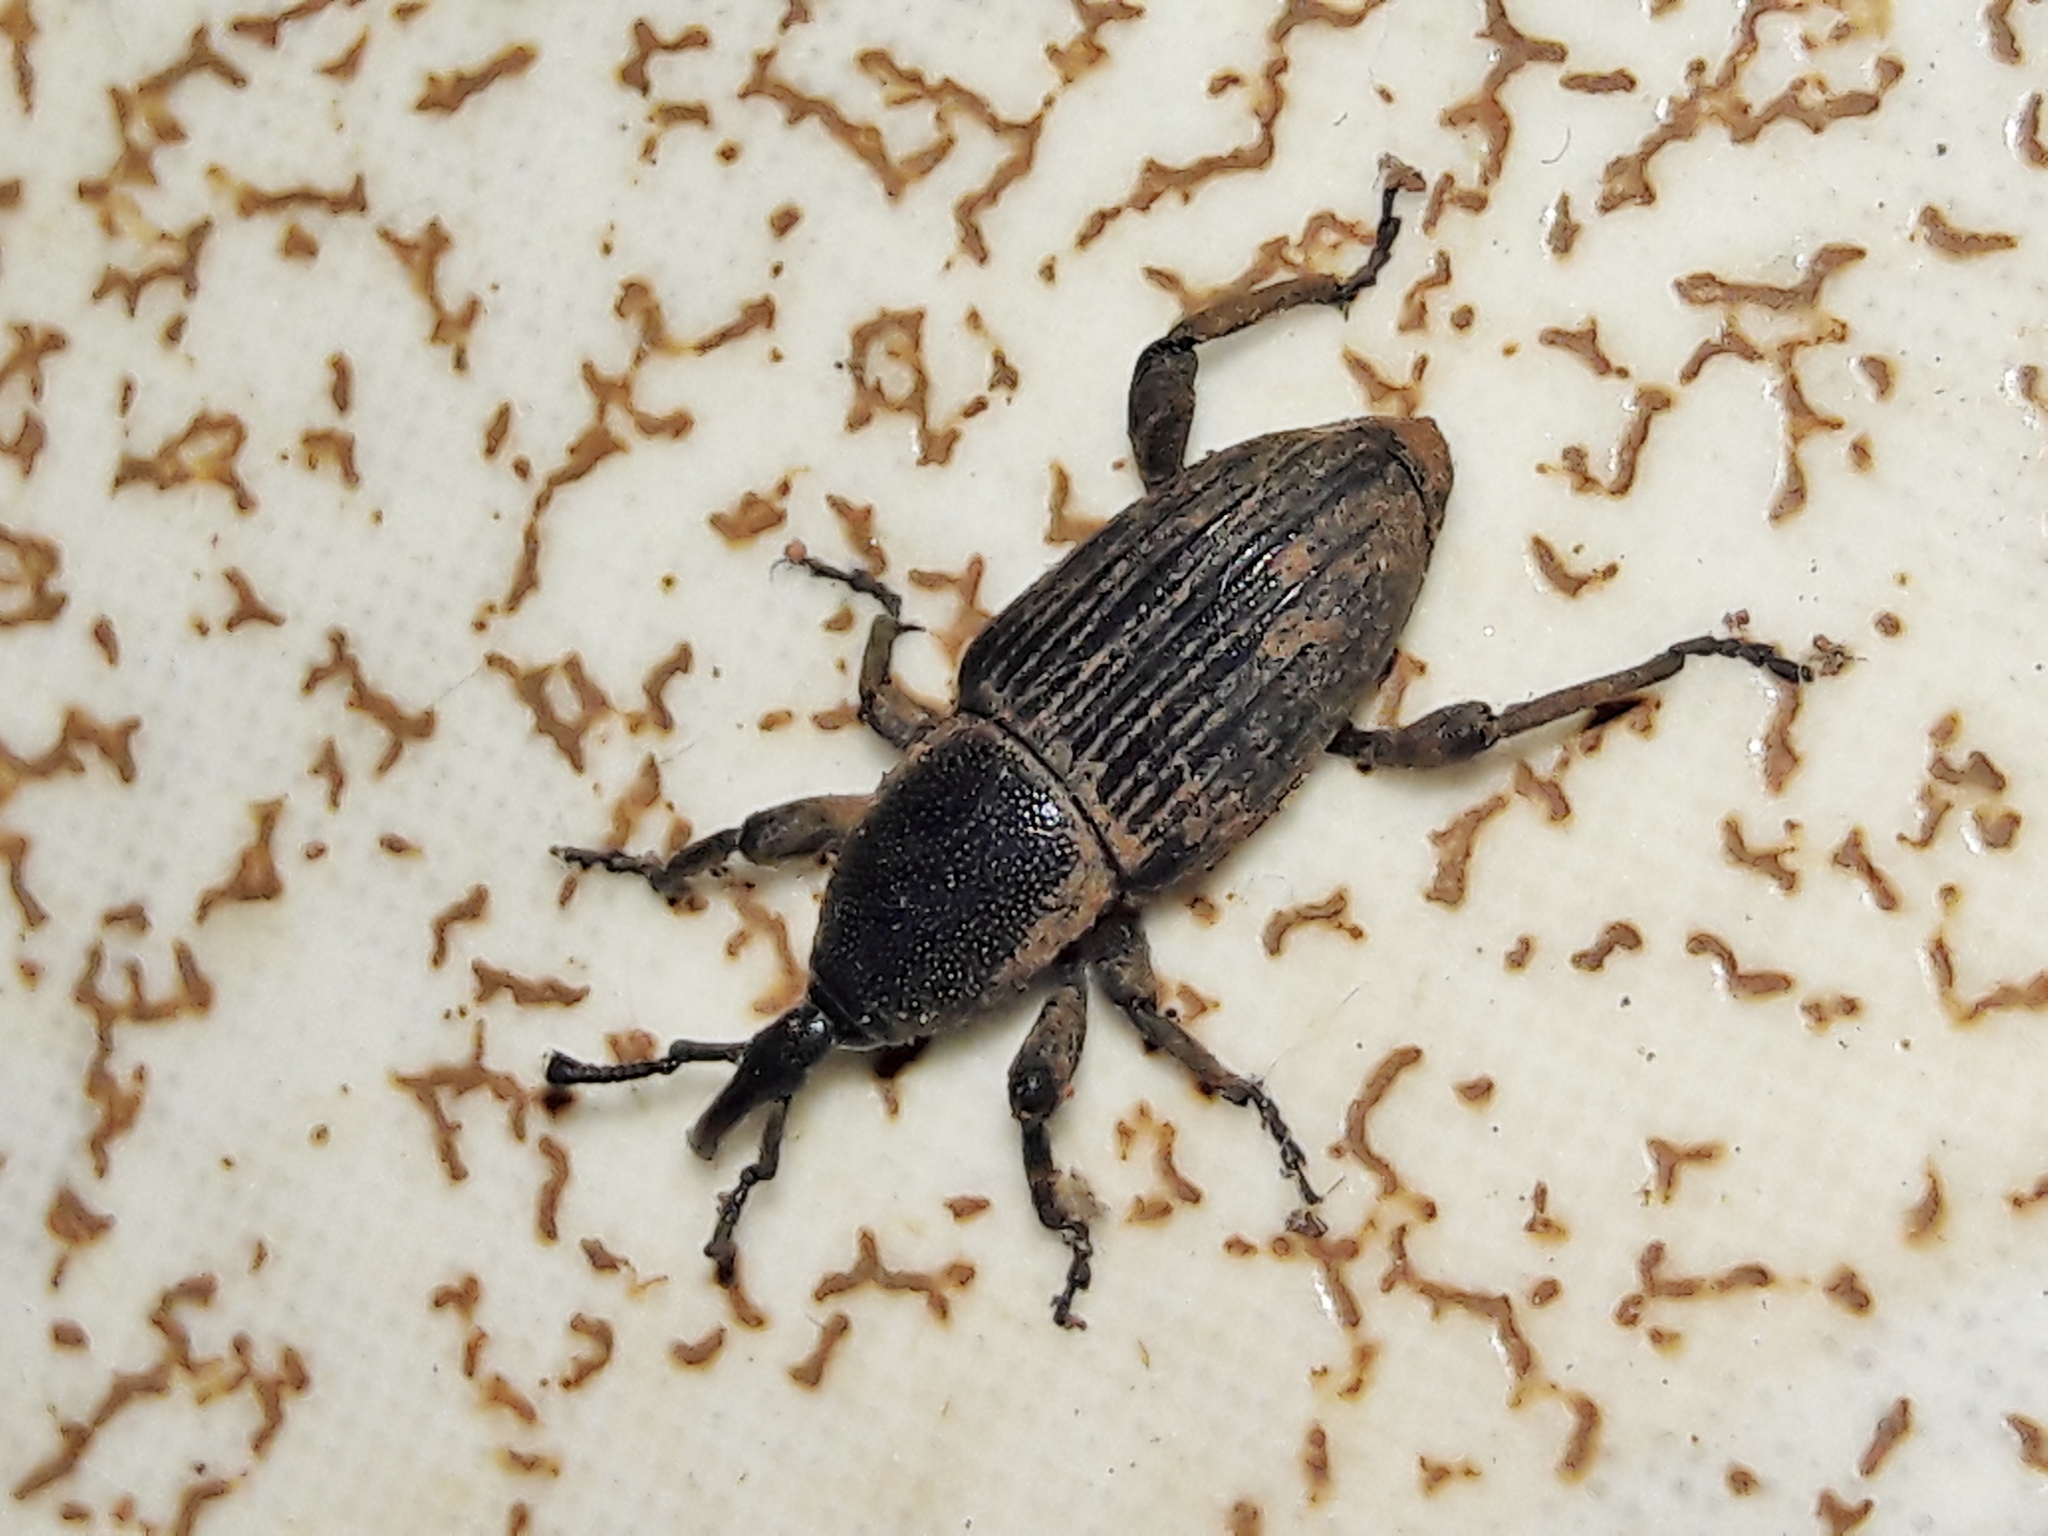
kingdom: Animalia
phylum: Arthropoda
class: Insecta
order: Coleoptera
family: Dryophthoridae
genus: Cosmopolites
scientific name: Cosmopolites sordidus
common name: Palm weevil
